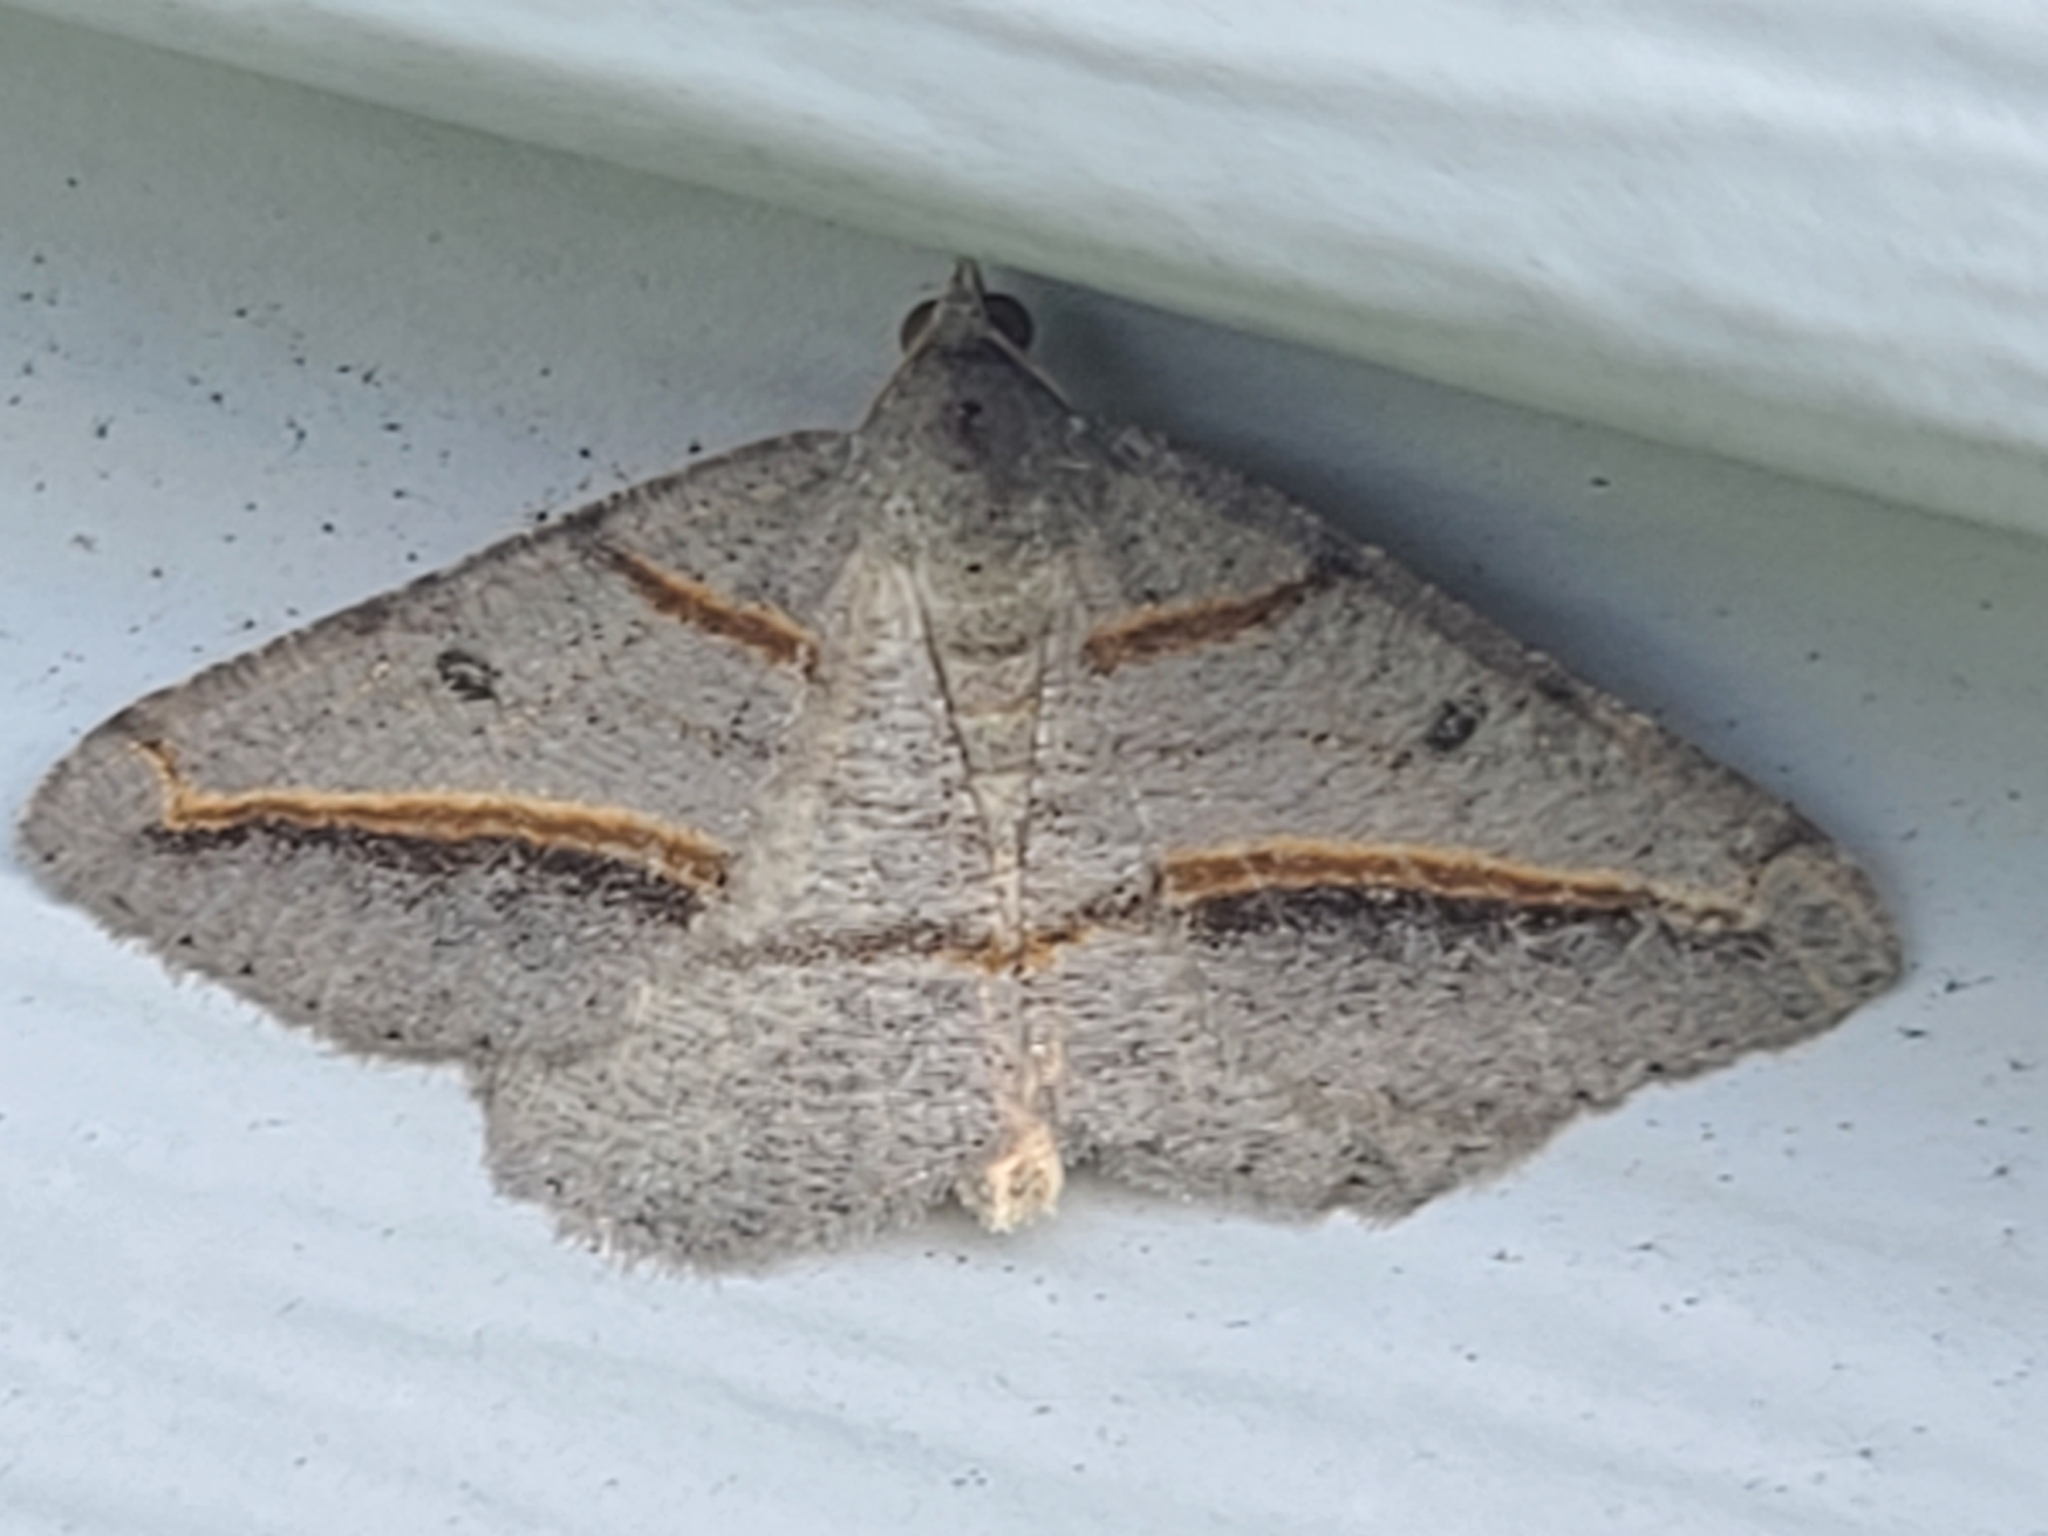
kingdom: Animalia
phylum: Arthropoda
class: Insecta
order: Lepidoptera
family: Geometridae
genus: Digrammia
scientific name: Digrammia mellistrigata
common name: Yellow-lined angle
